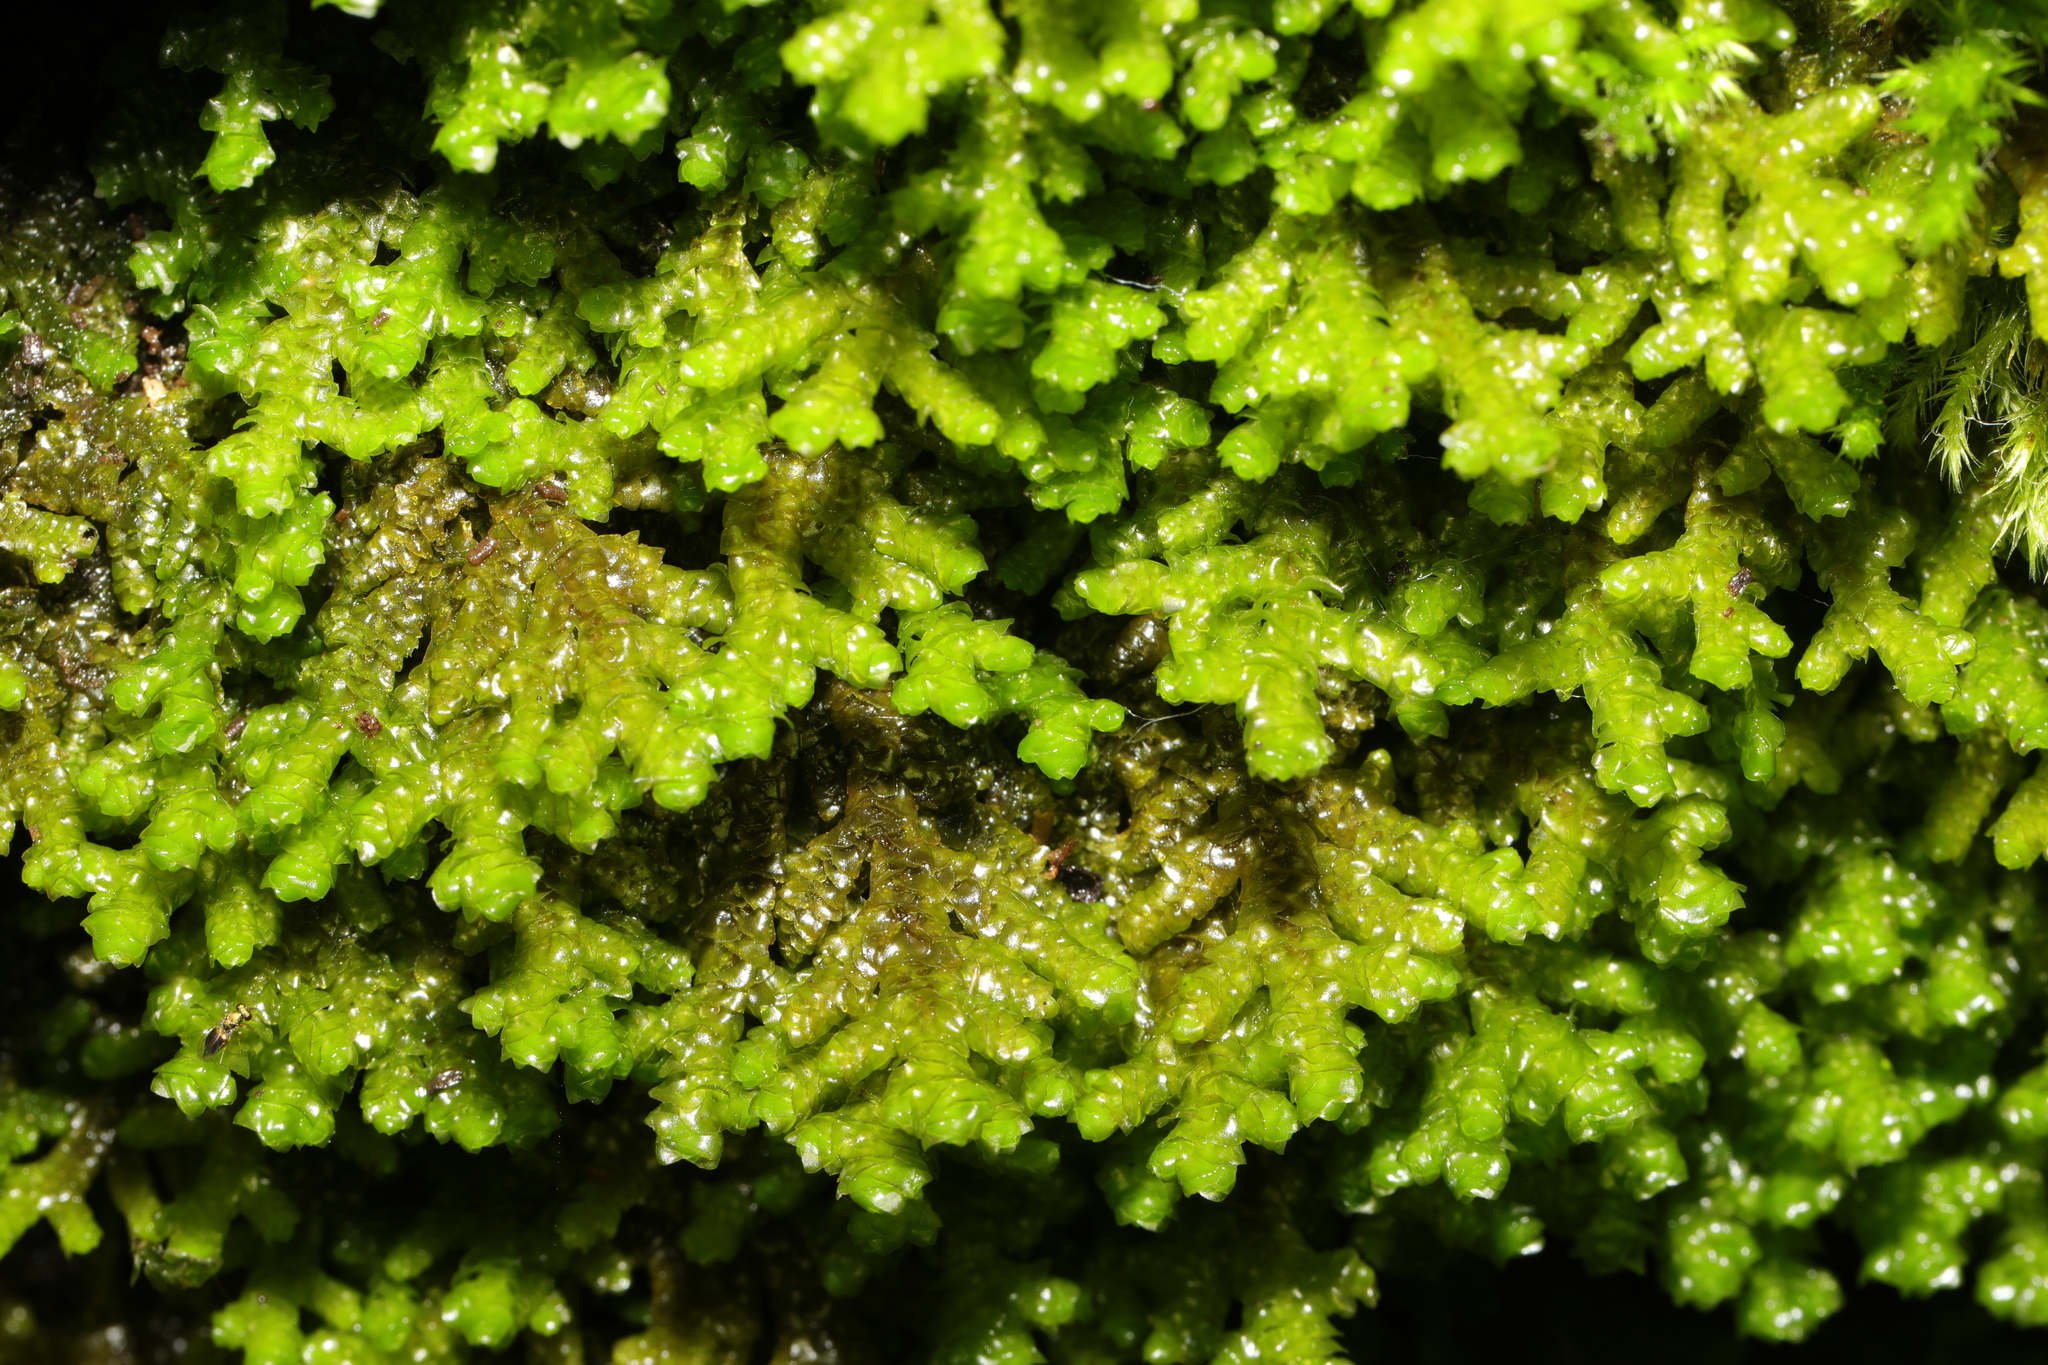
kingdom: Plantae
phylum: Marchantiophyta
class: Jungermanniopsida
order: Porellales
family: Porellaceae
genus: Porella
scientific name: Porella platyphylla
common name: Wall scalewort
